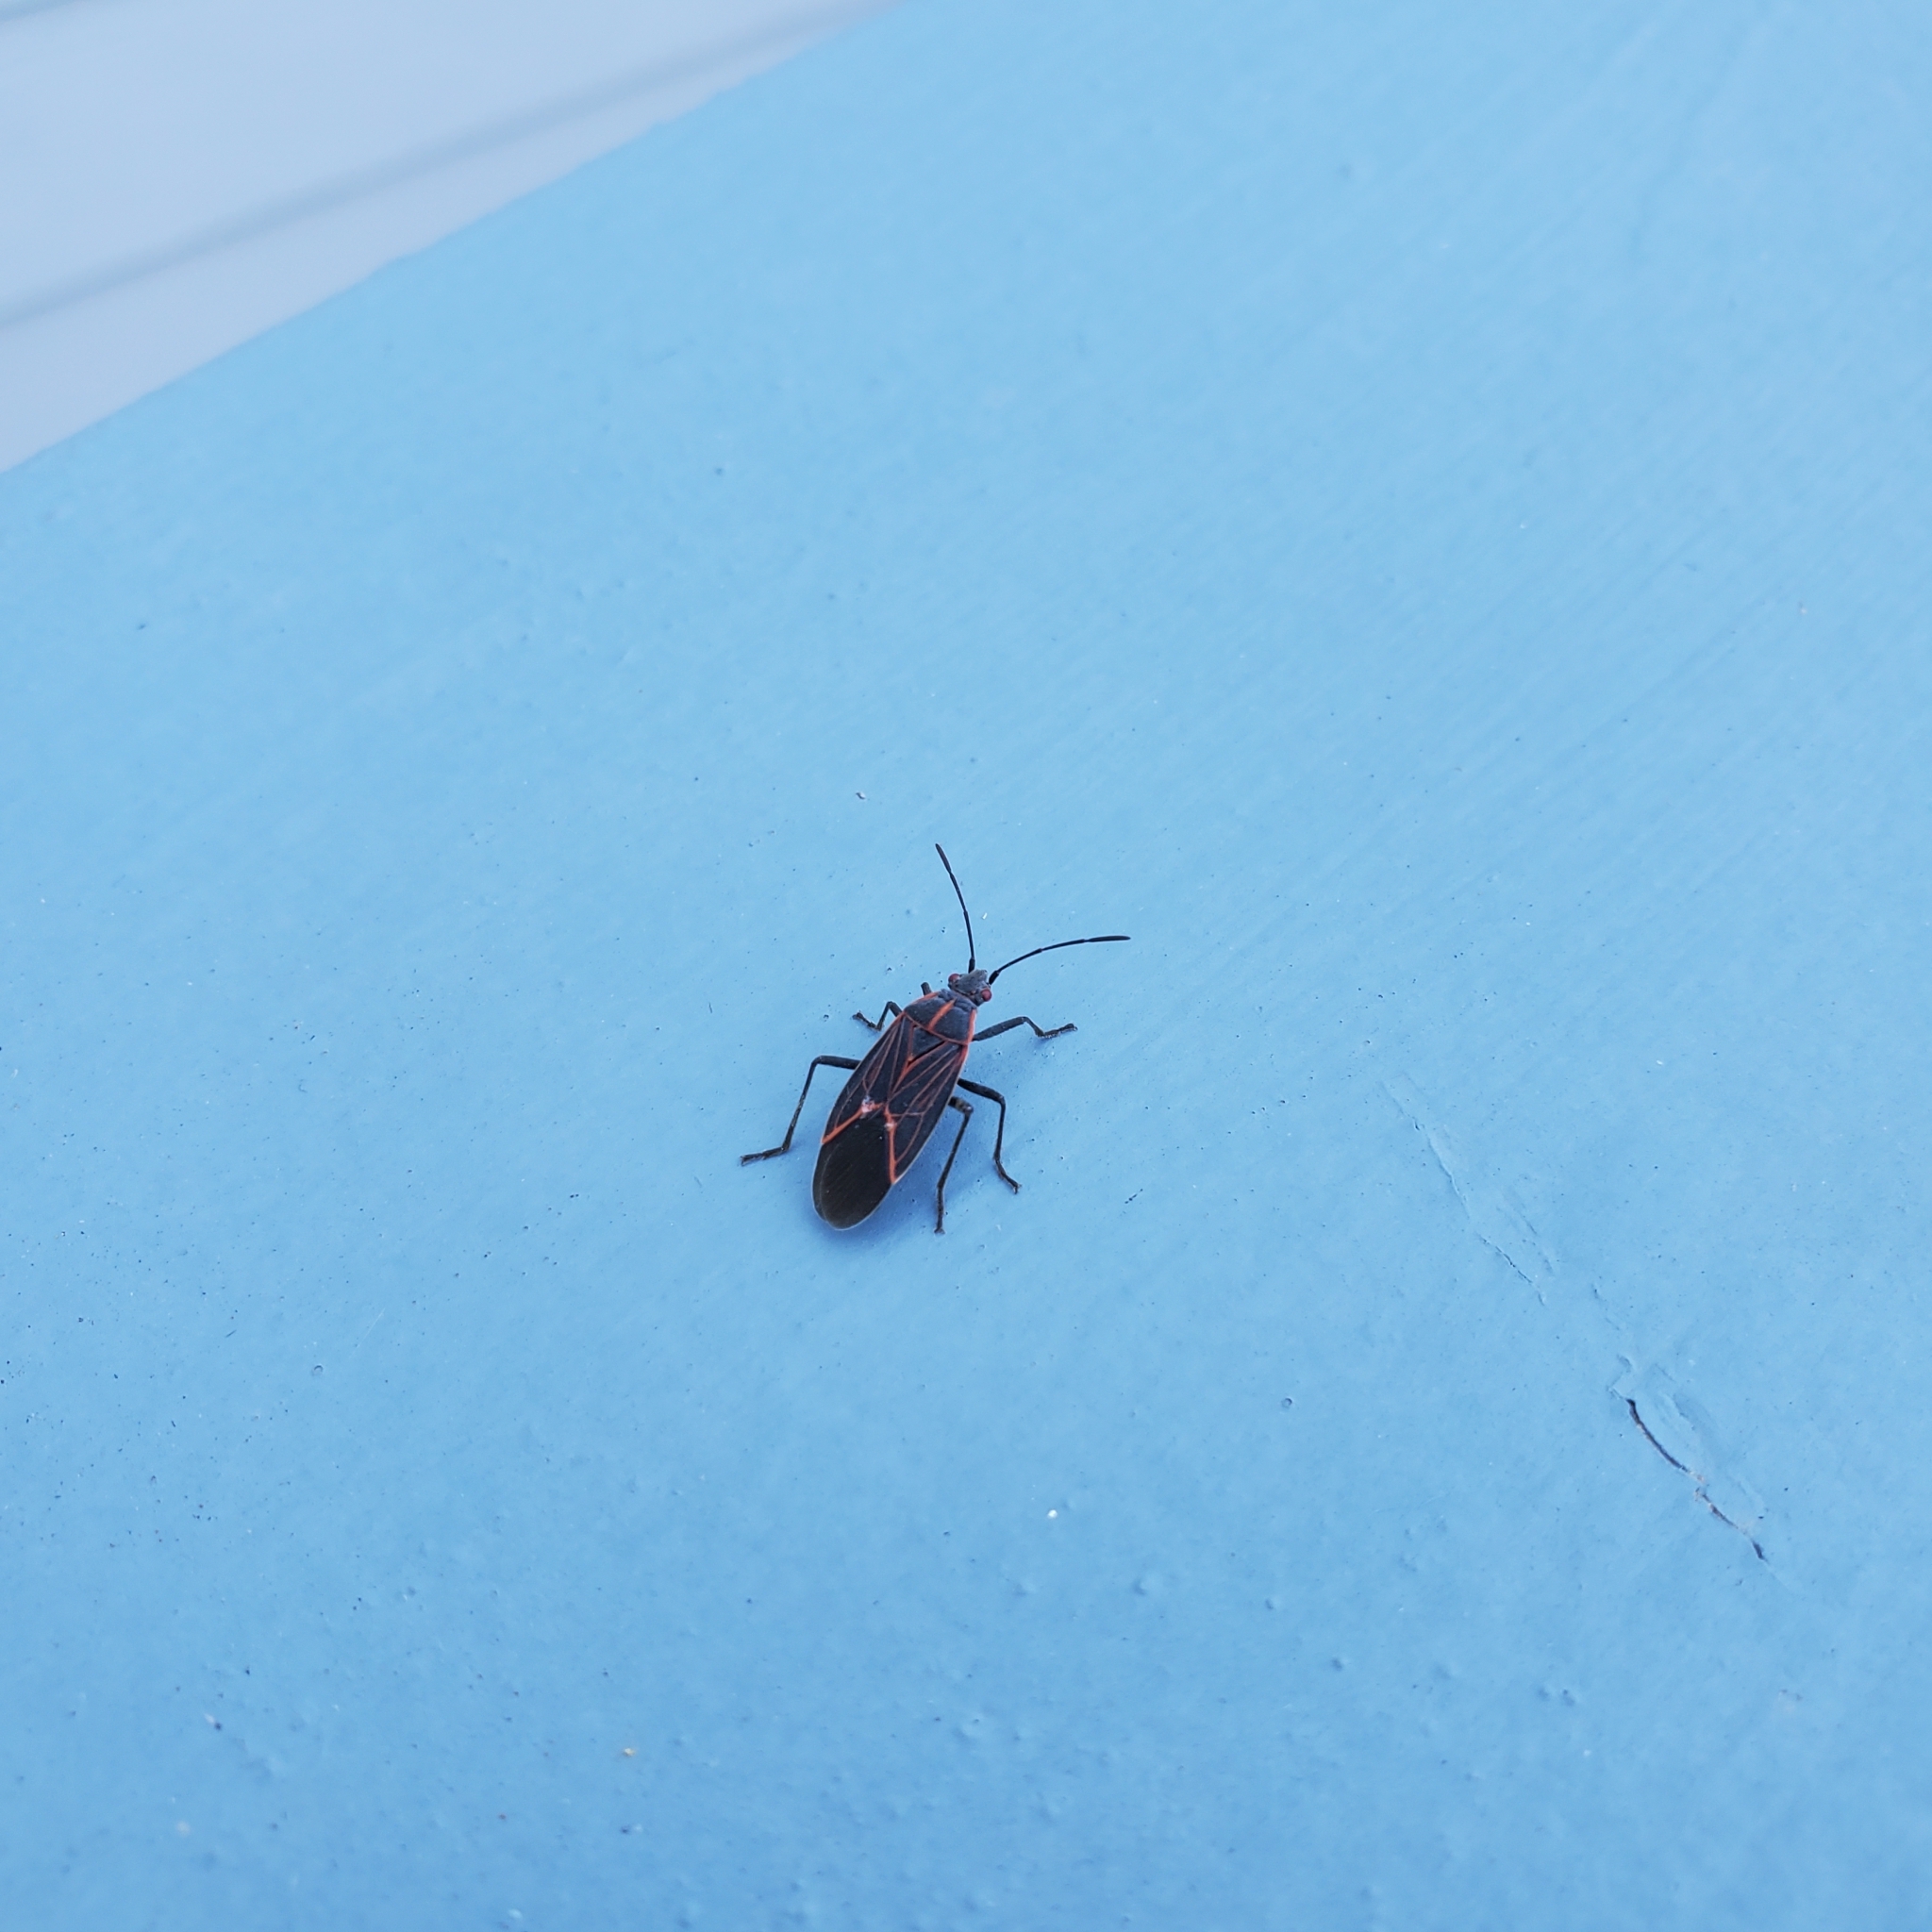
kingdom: Animalia
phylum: Arthropoda
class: Insecta
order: Hemiptera
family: Rhopalidae
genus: Boisea
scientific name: Boisea rubrolineata
